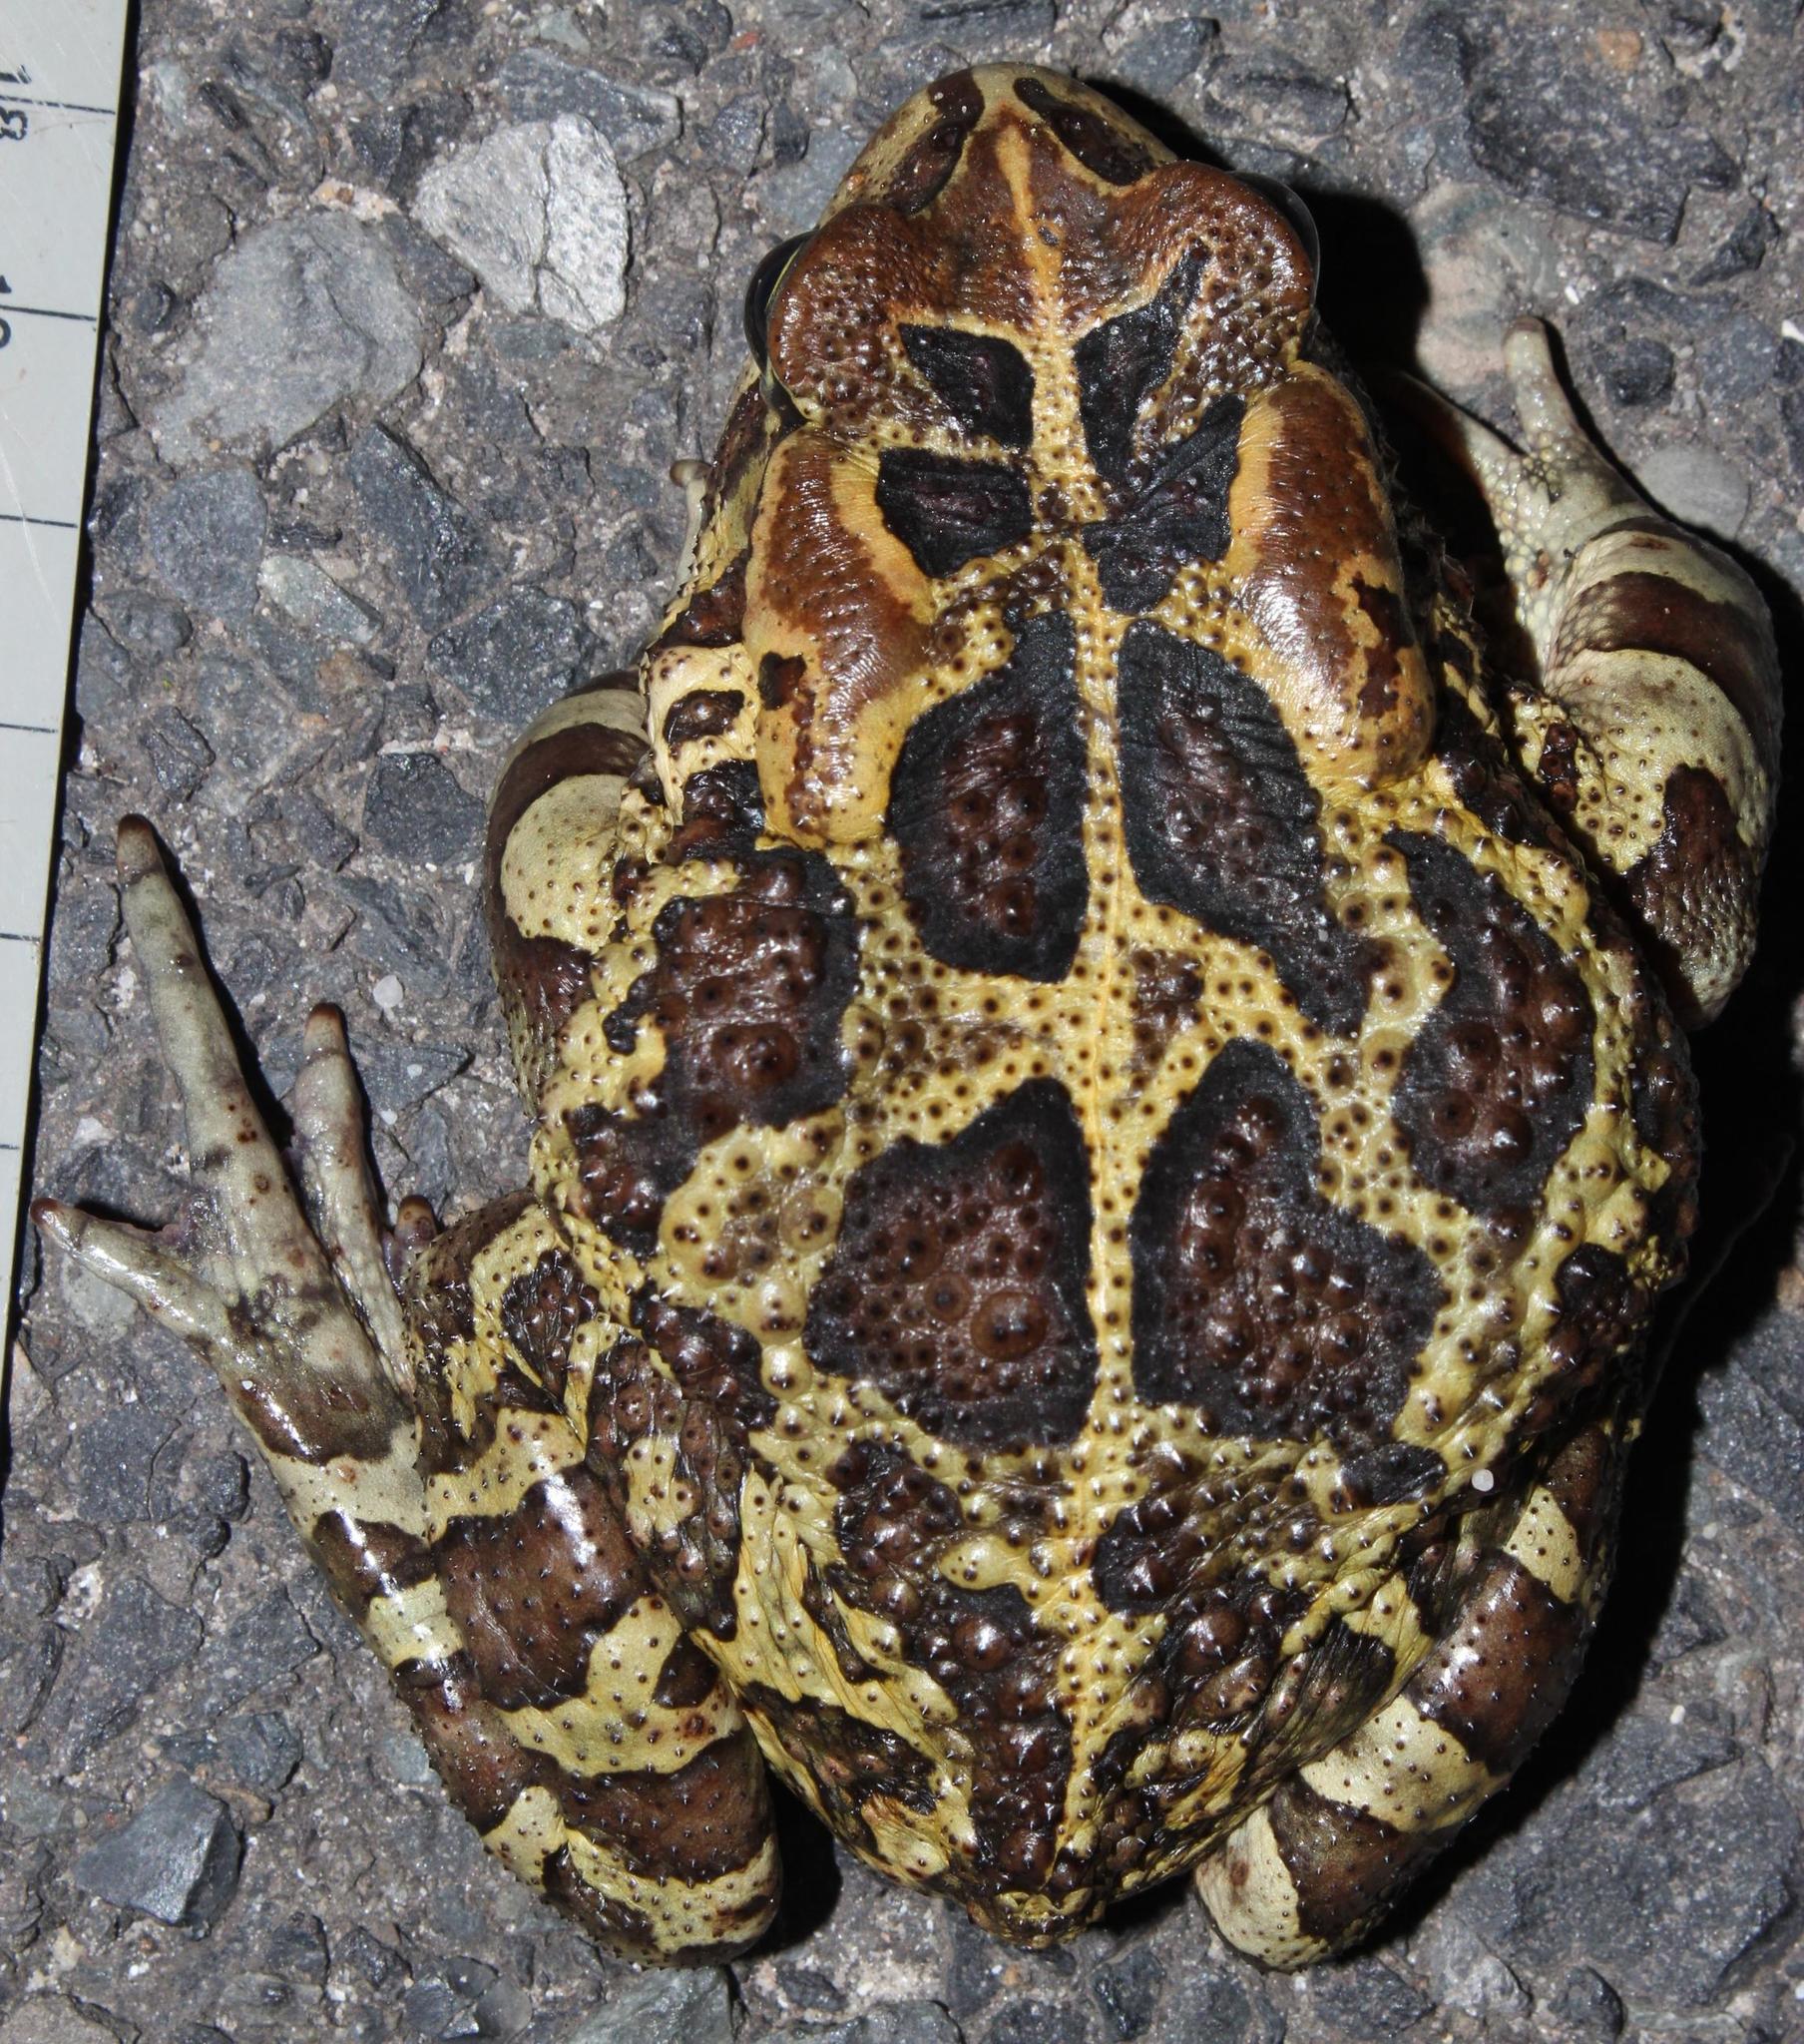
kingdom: Animalia
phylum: Chordata
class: Amphibia
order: Anura
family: Bufonidae
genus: Sclerophrys
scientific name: Sclerophrys pantherina
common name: Panther toad
